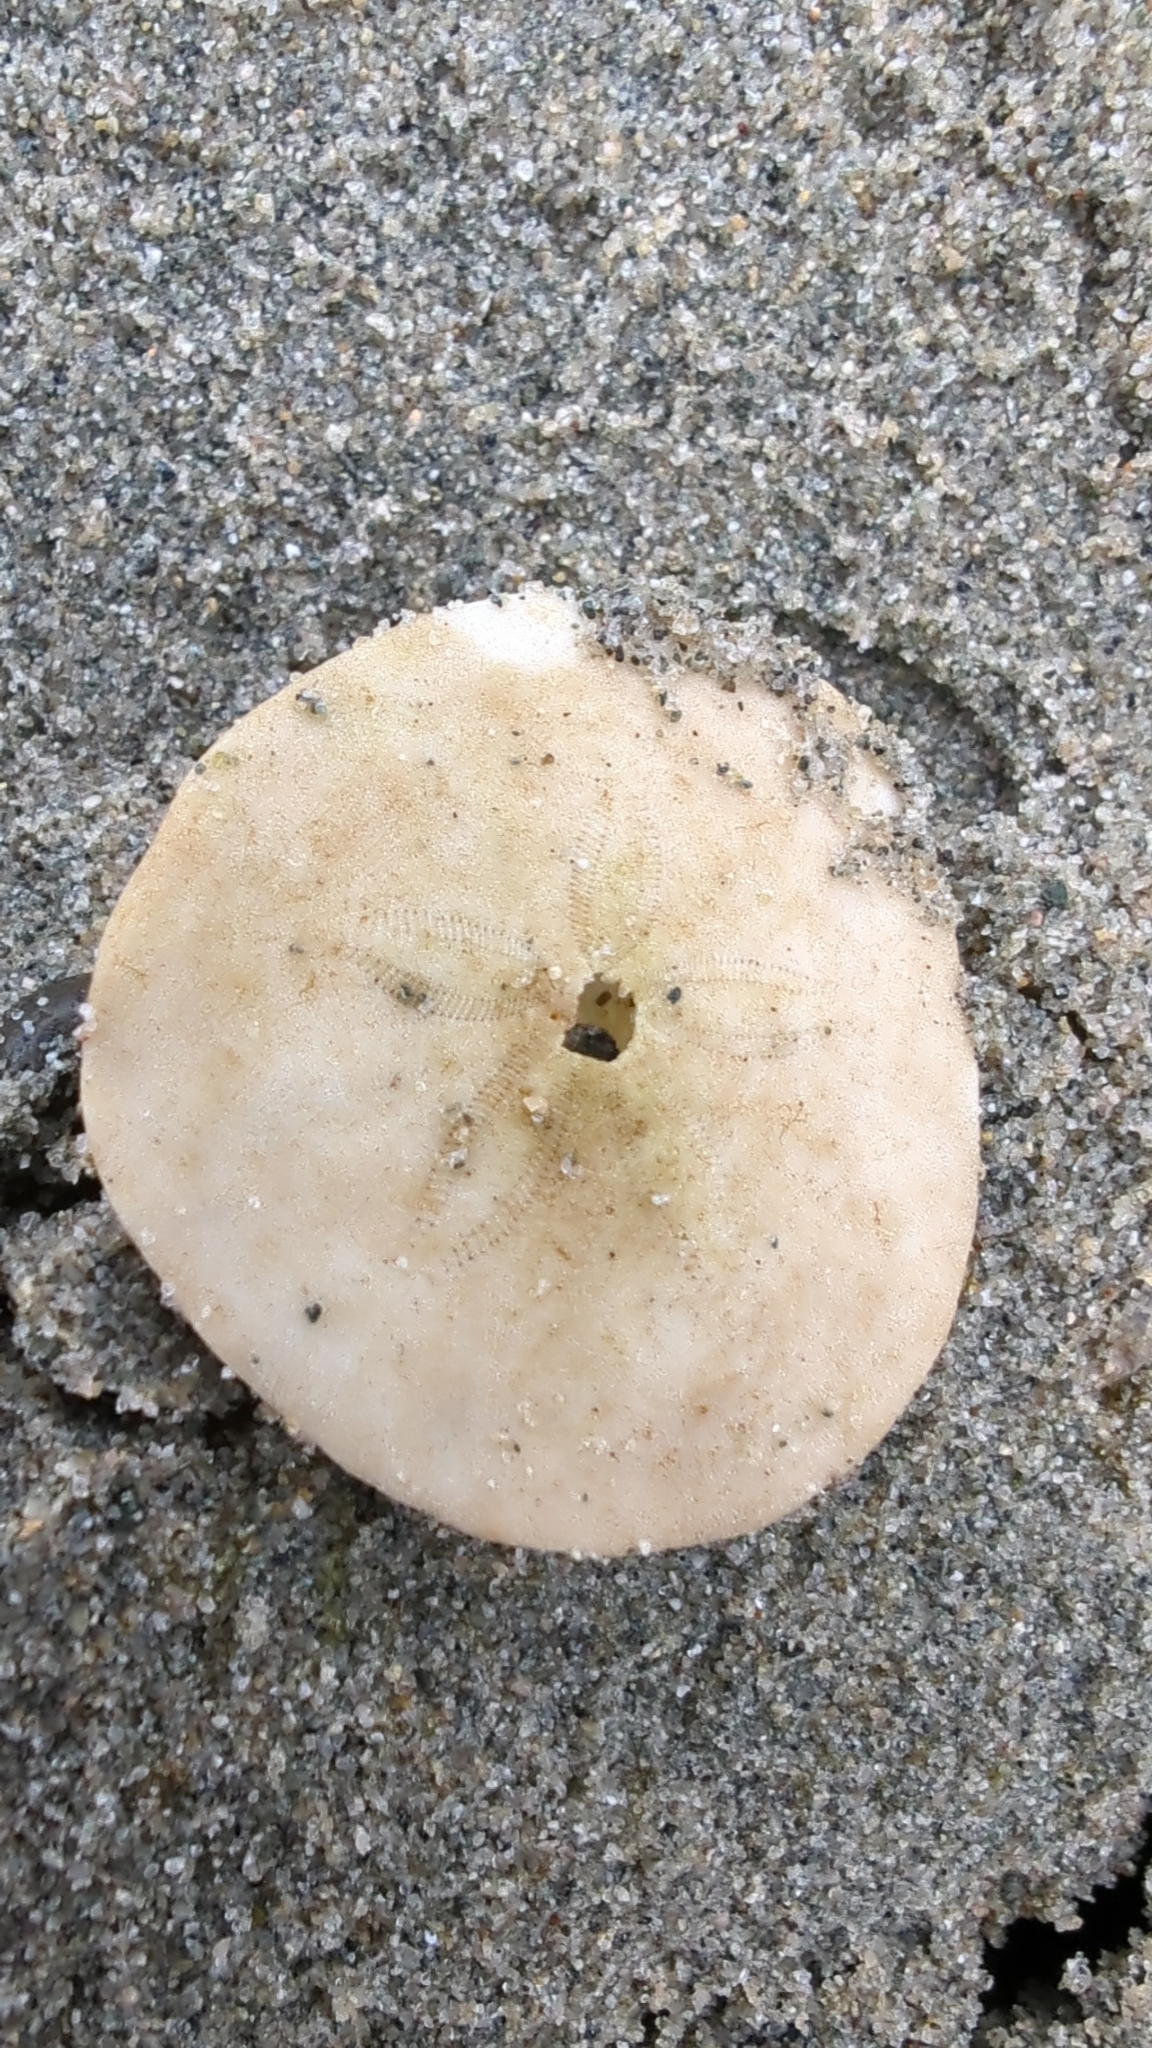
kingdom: Animalia
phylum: Echinodermata
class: Echinoidea
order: Echinolampadacea
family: Dendrasteridae
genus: Dendraster
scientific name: Dendraster excentricus
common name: Eccentric sand dollar sea urchin
